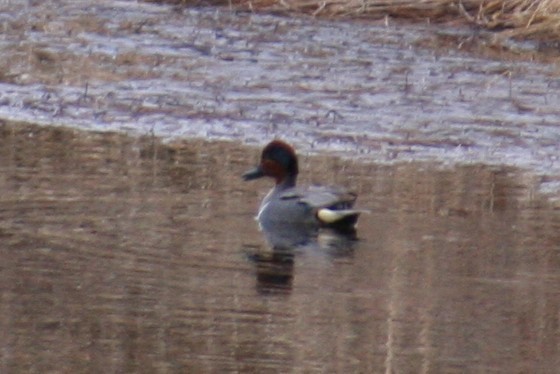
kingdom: Animalia
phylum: Chordata
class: Aves
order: Anseriformes
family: Anatidae
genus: Anas
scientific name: Anas crecca
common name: Eurasian teal
